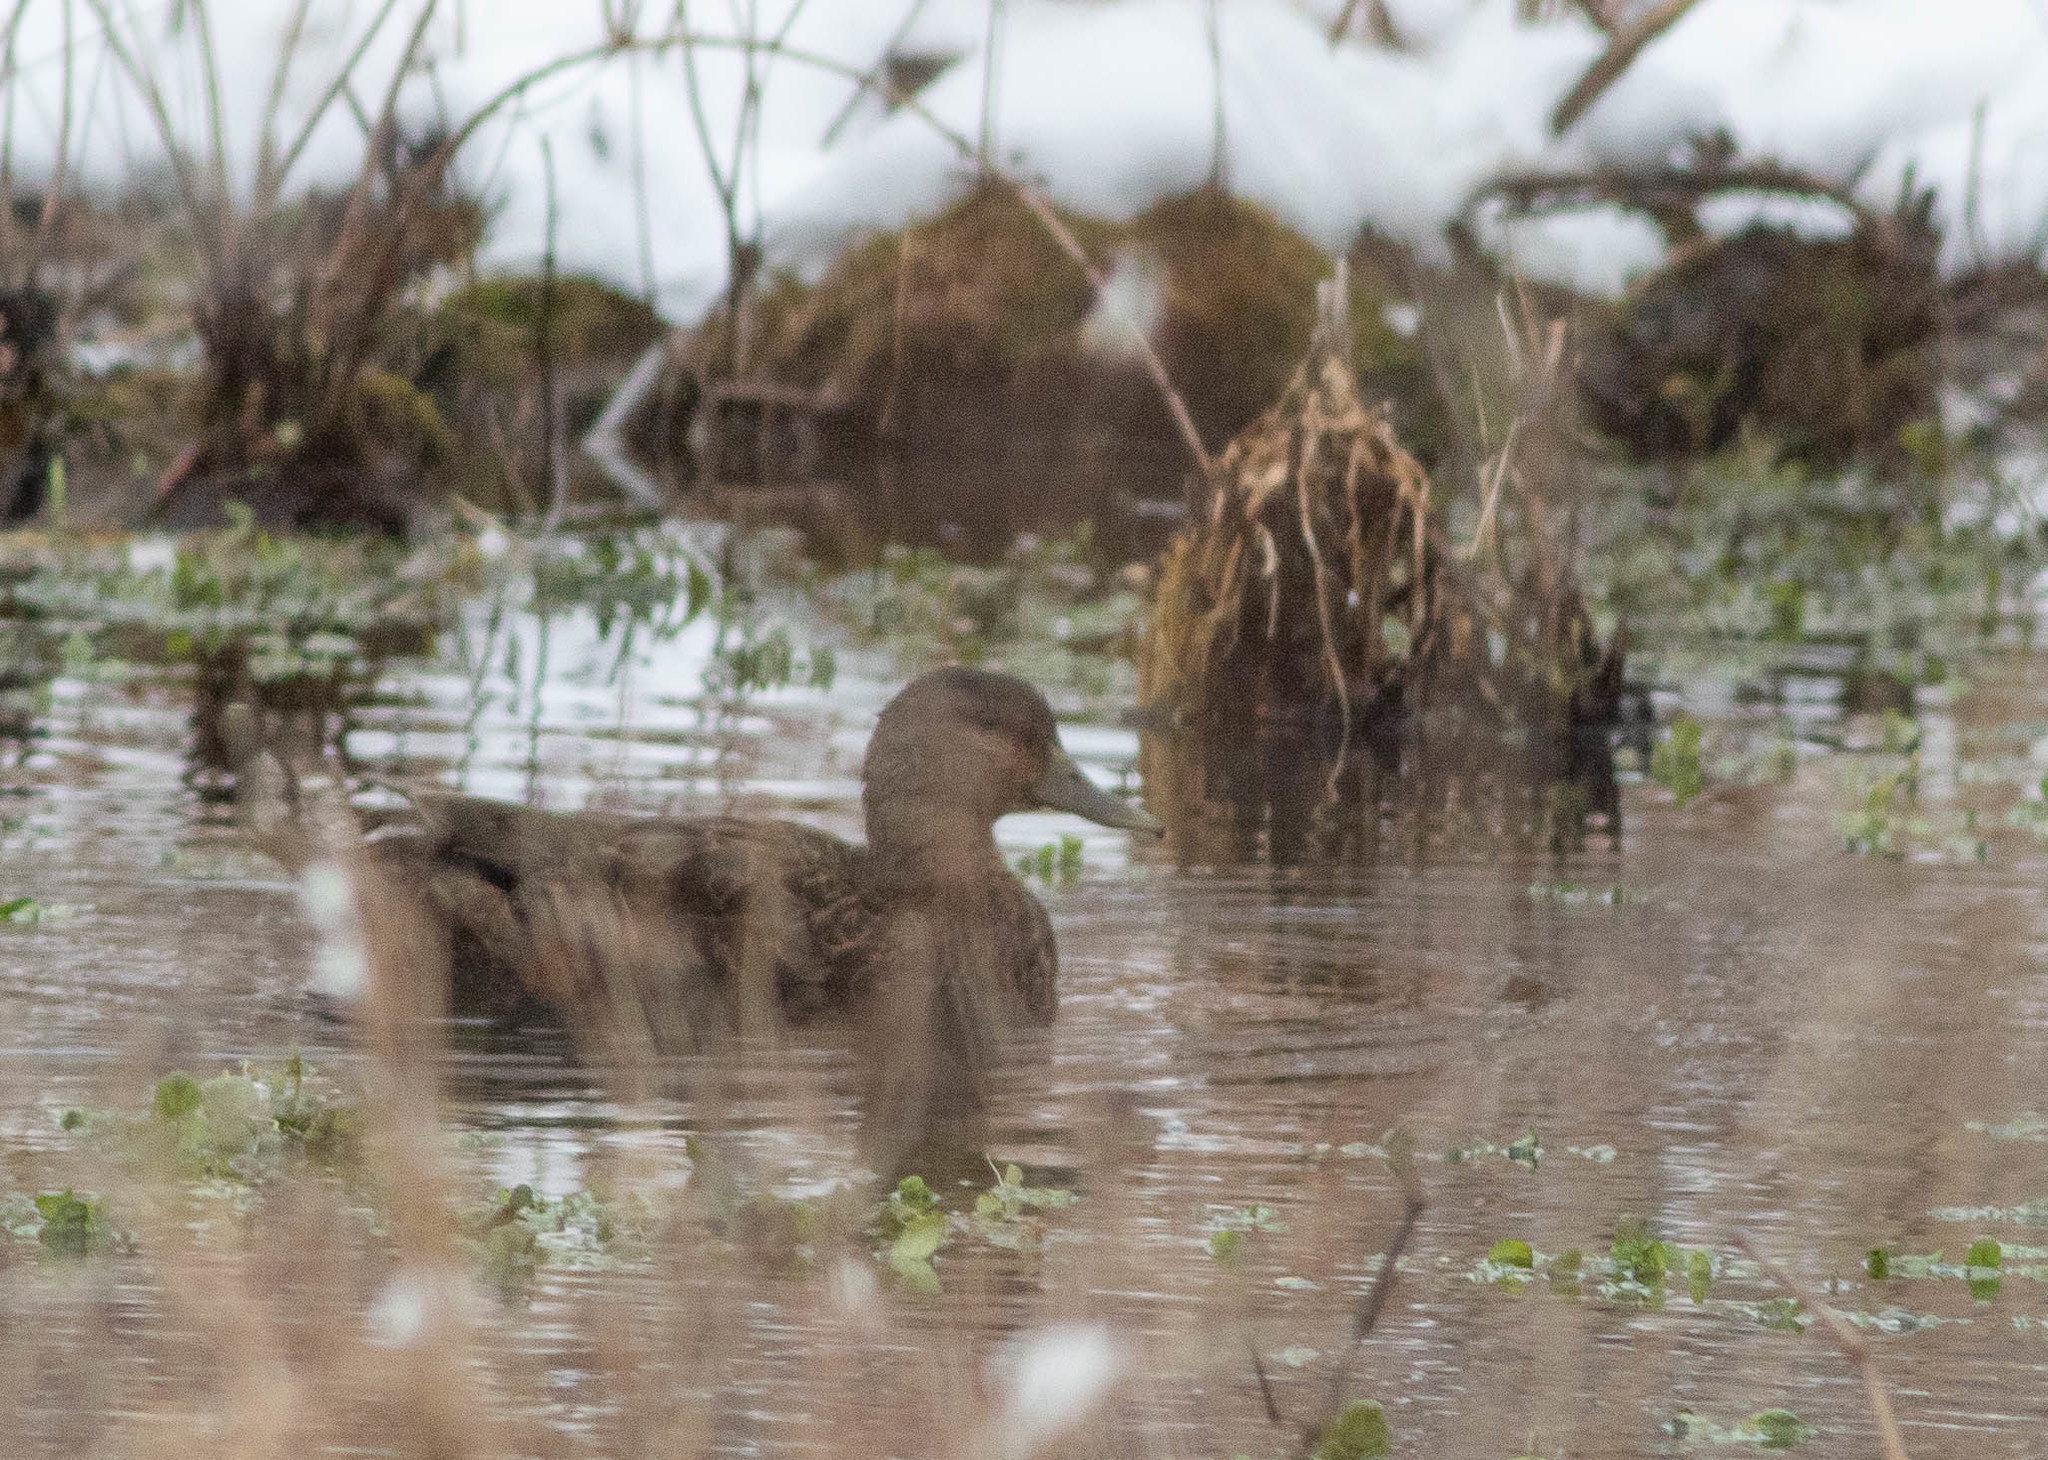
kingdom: Animalia
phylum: Chordata
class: Aves
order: Anseriformes
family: Anatidae
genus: Anas
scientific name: Anas rubripes
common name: American black duck
